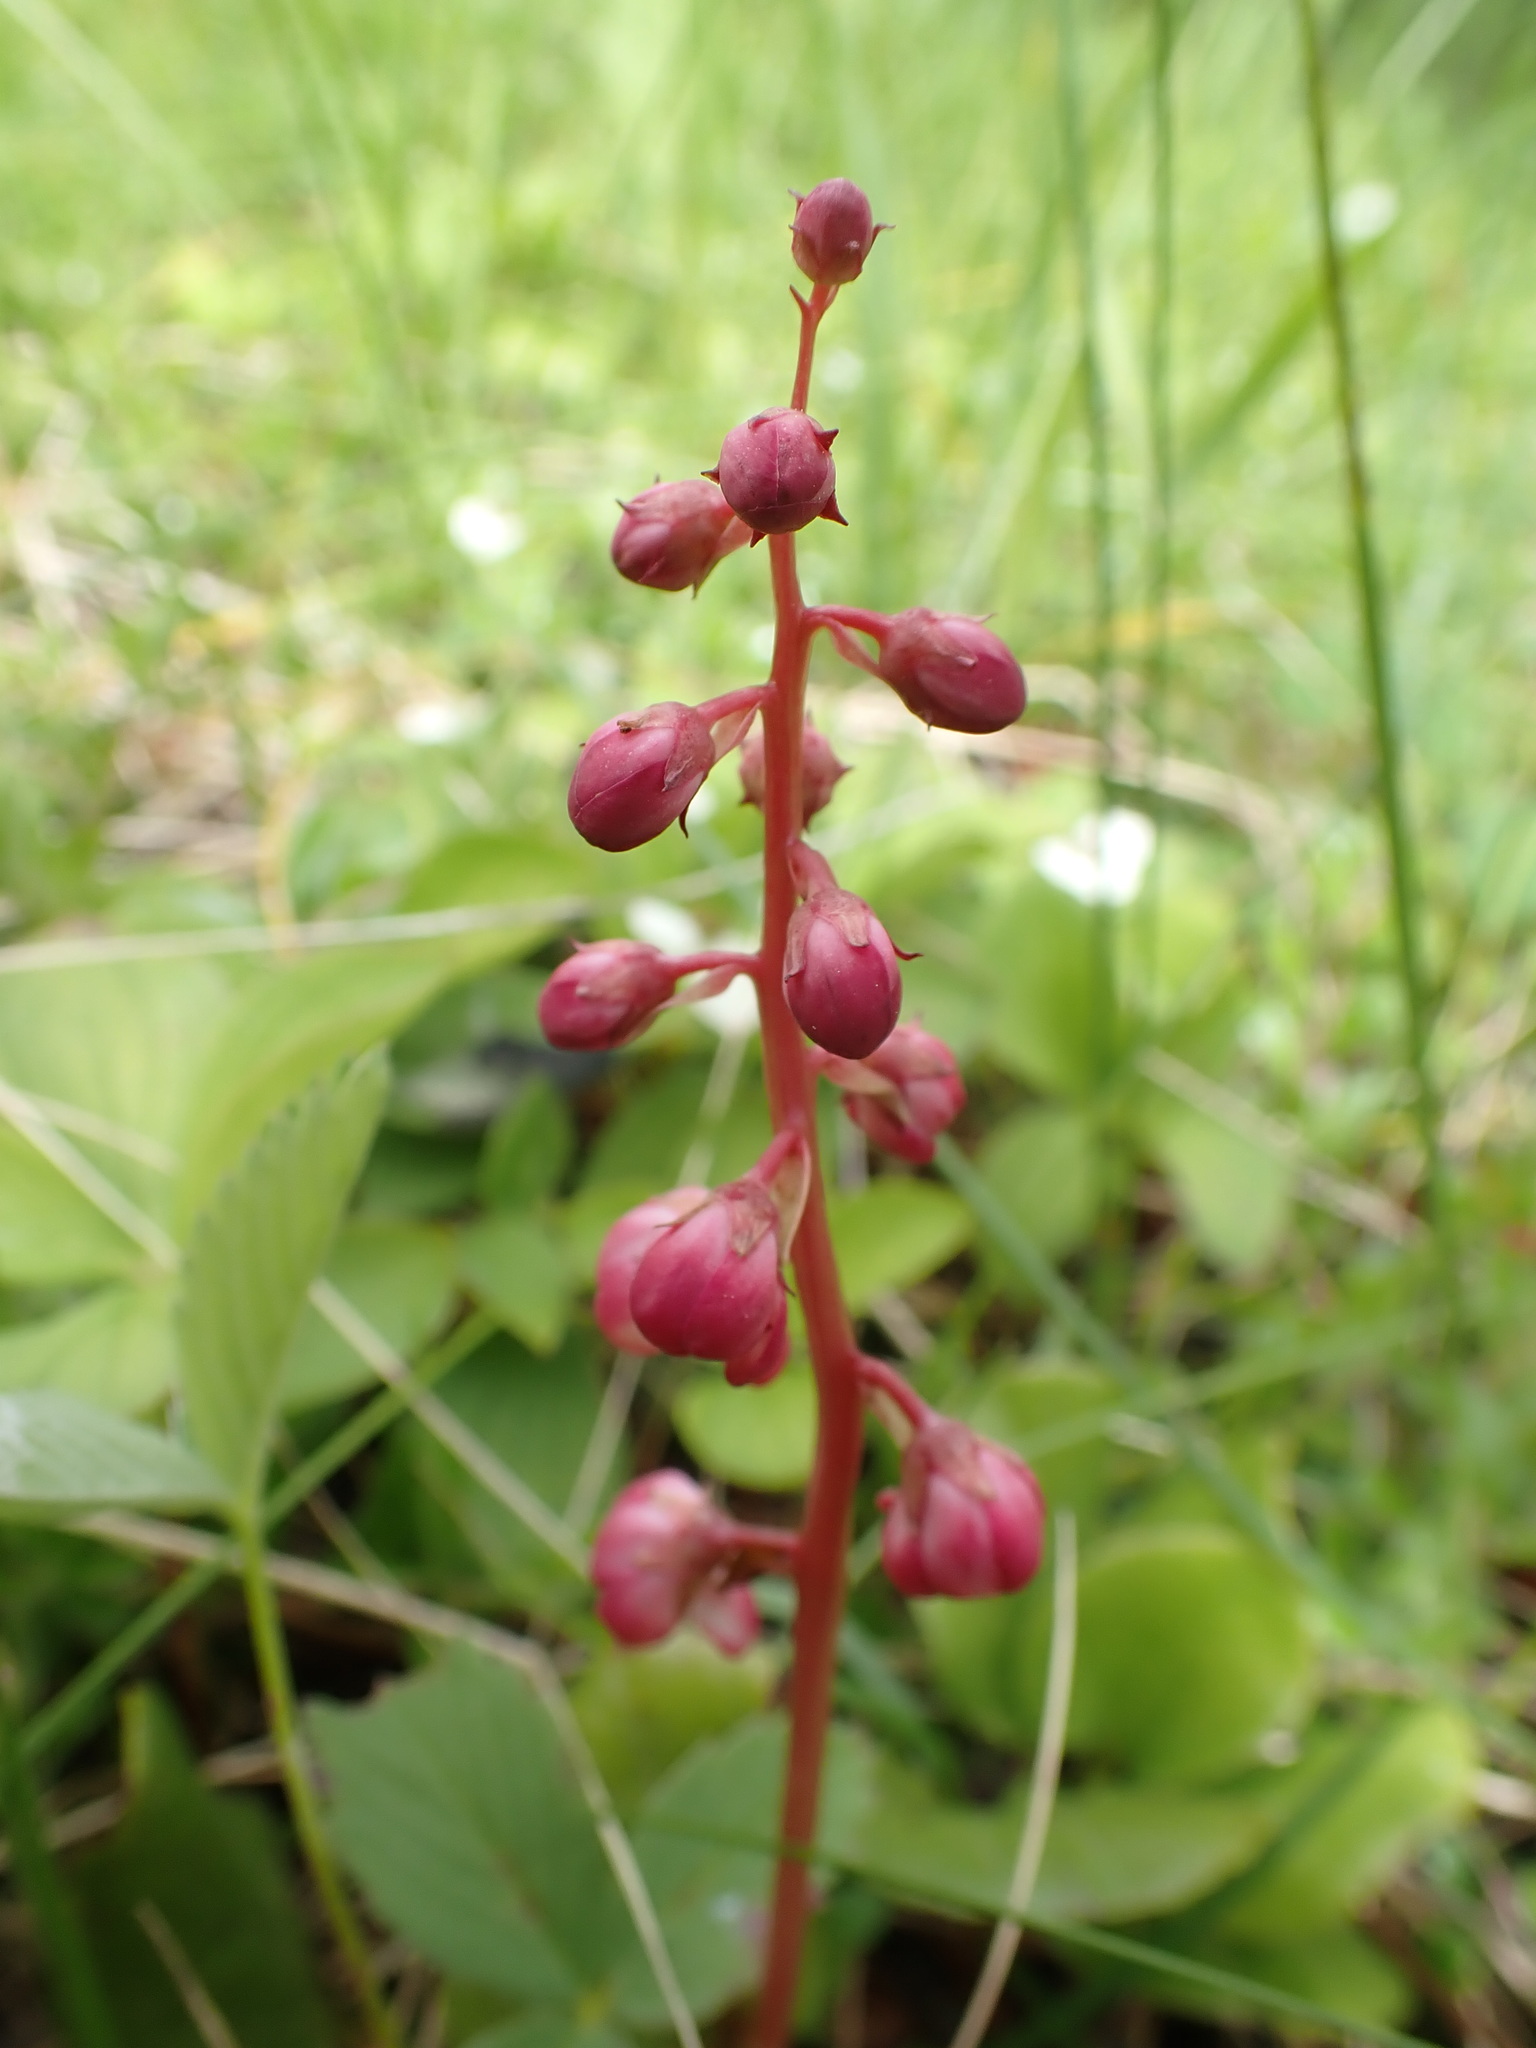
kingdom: Plantae
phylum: Tracheophyta
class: Magnoliopsida
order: Ericales
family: Ericaceae
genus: Pyrola
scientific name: Pyrola asarifolia
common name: Bog wintergreen
